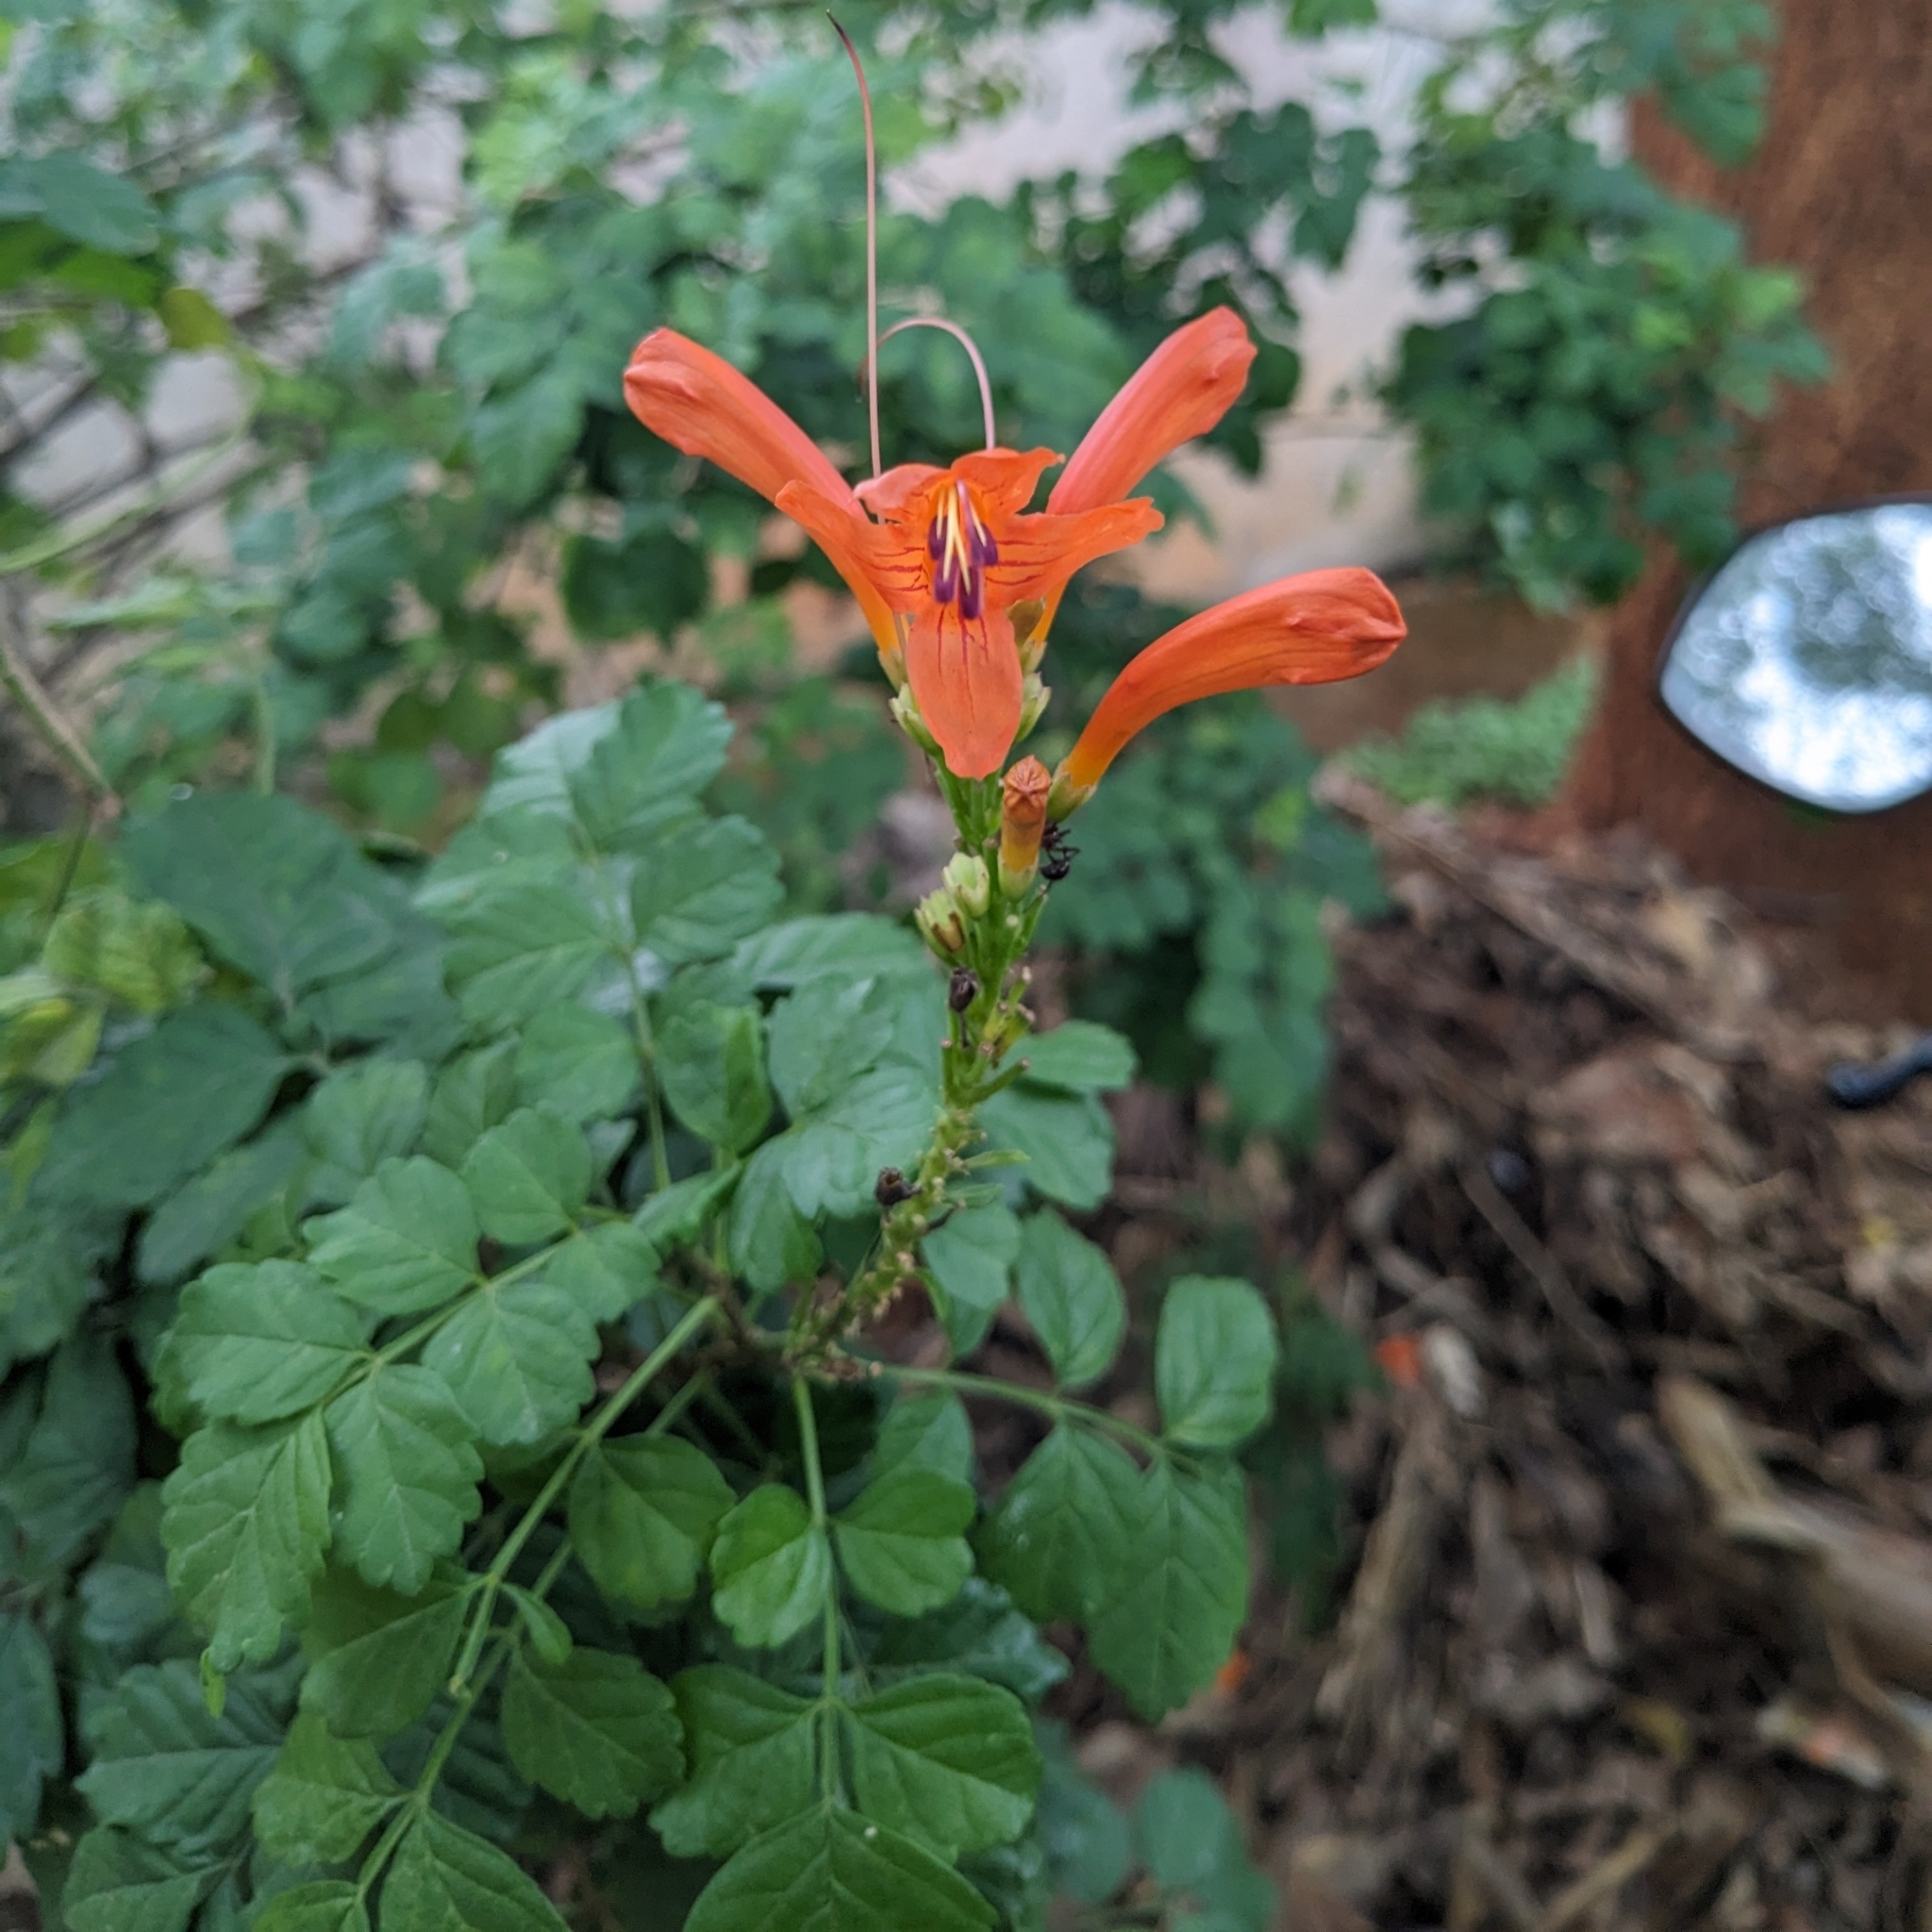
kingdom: Plantae
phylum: Tracheophyta
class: Magnoliopsida
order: Lamiales
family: Bignoniaceae
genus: Tecomaria
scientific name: Tecomaria capensis
